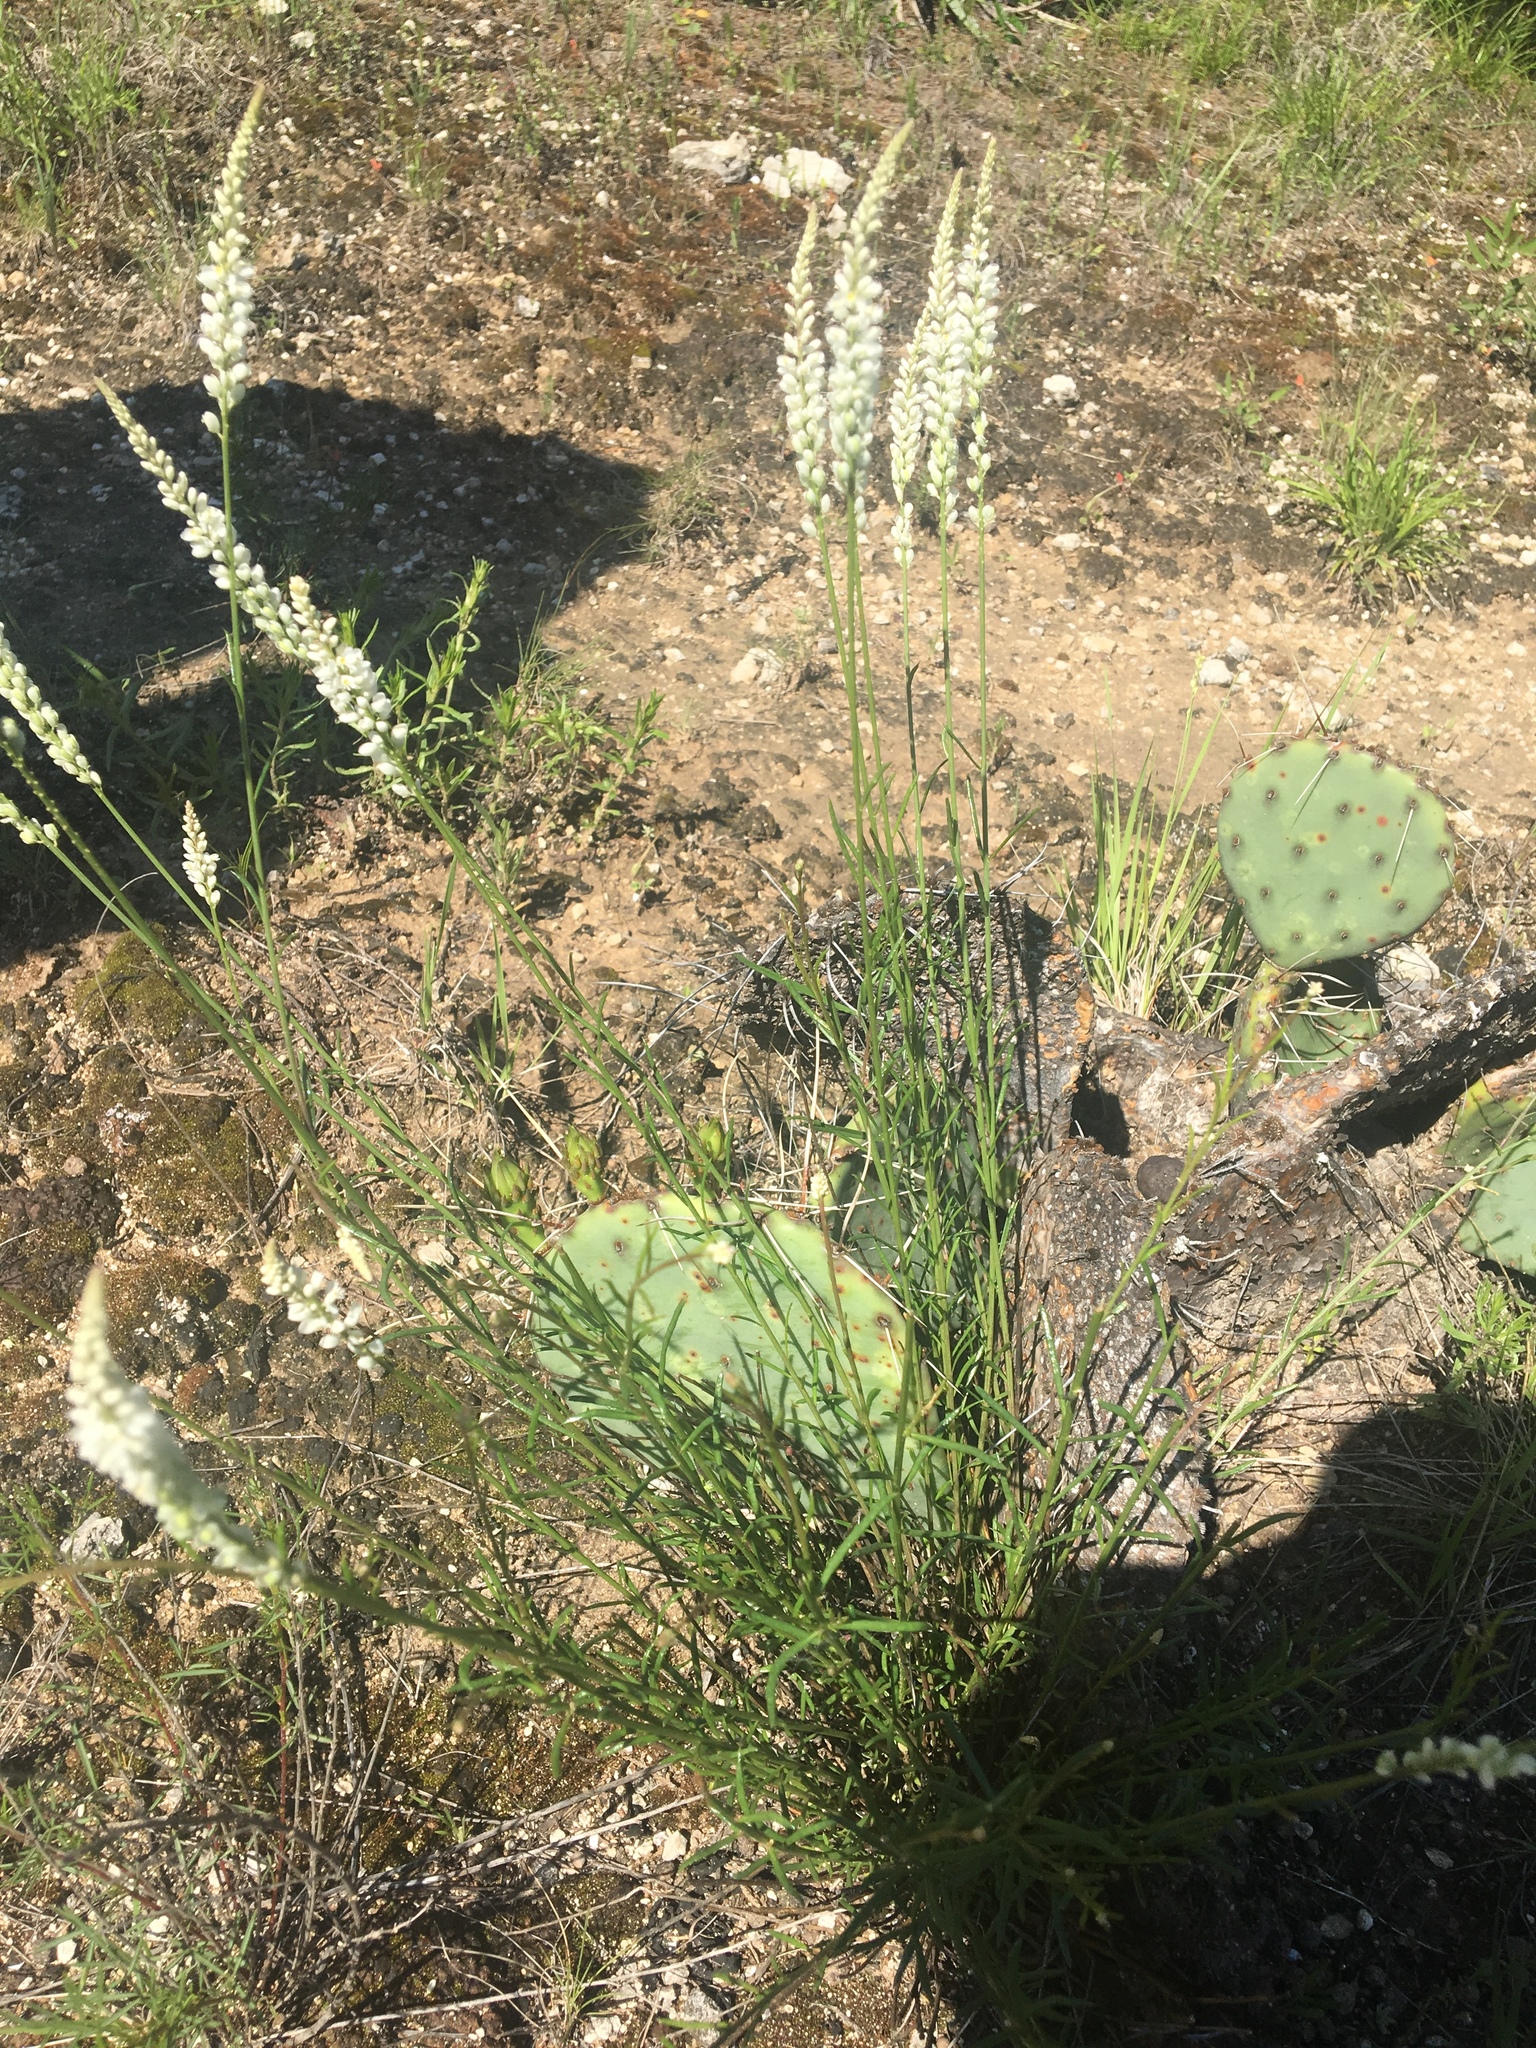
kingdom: Plantae
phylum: Tracheophyta
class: Magnoliopsida
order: Fabales
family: Polygalaceae
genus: Polygala
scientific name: Polygala alba
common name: White milkwort
